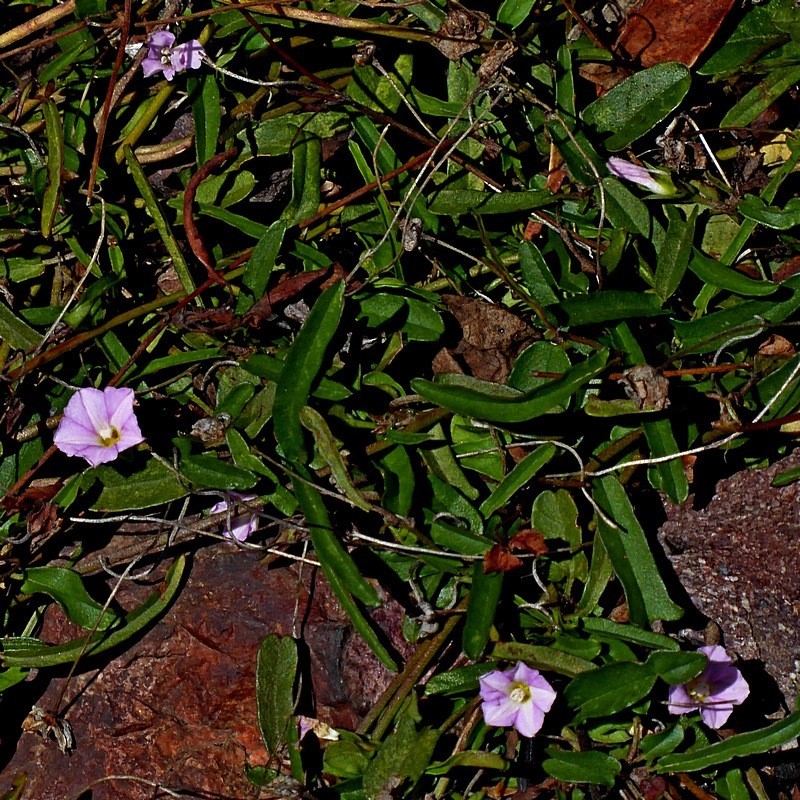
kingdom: Plantae
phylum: Tracheophyta
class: Magnoliopsida
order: Solanales
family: Convolvulaceae
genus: Polymeria
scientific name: Polymeria calycina
